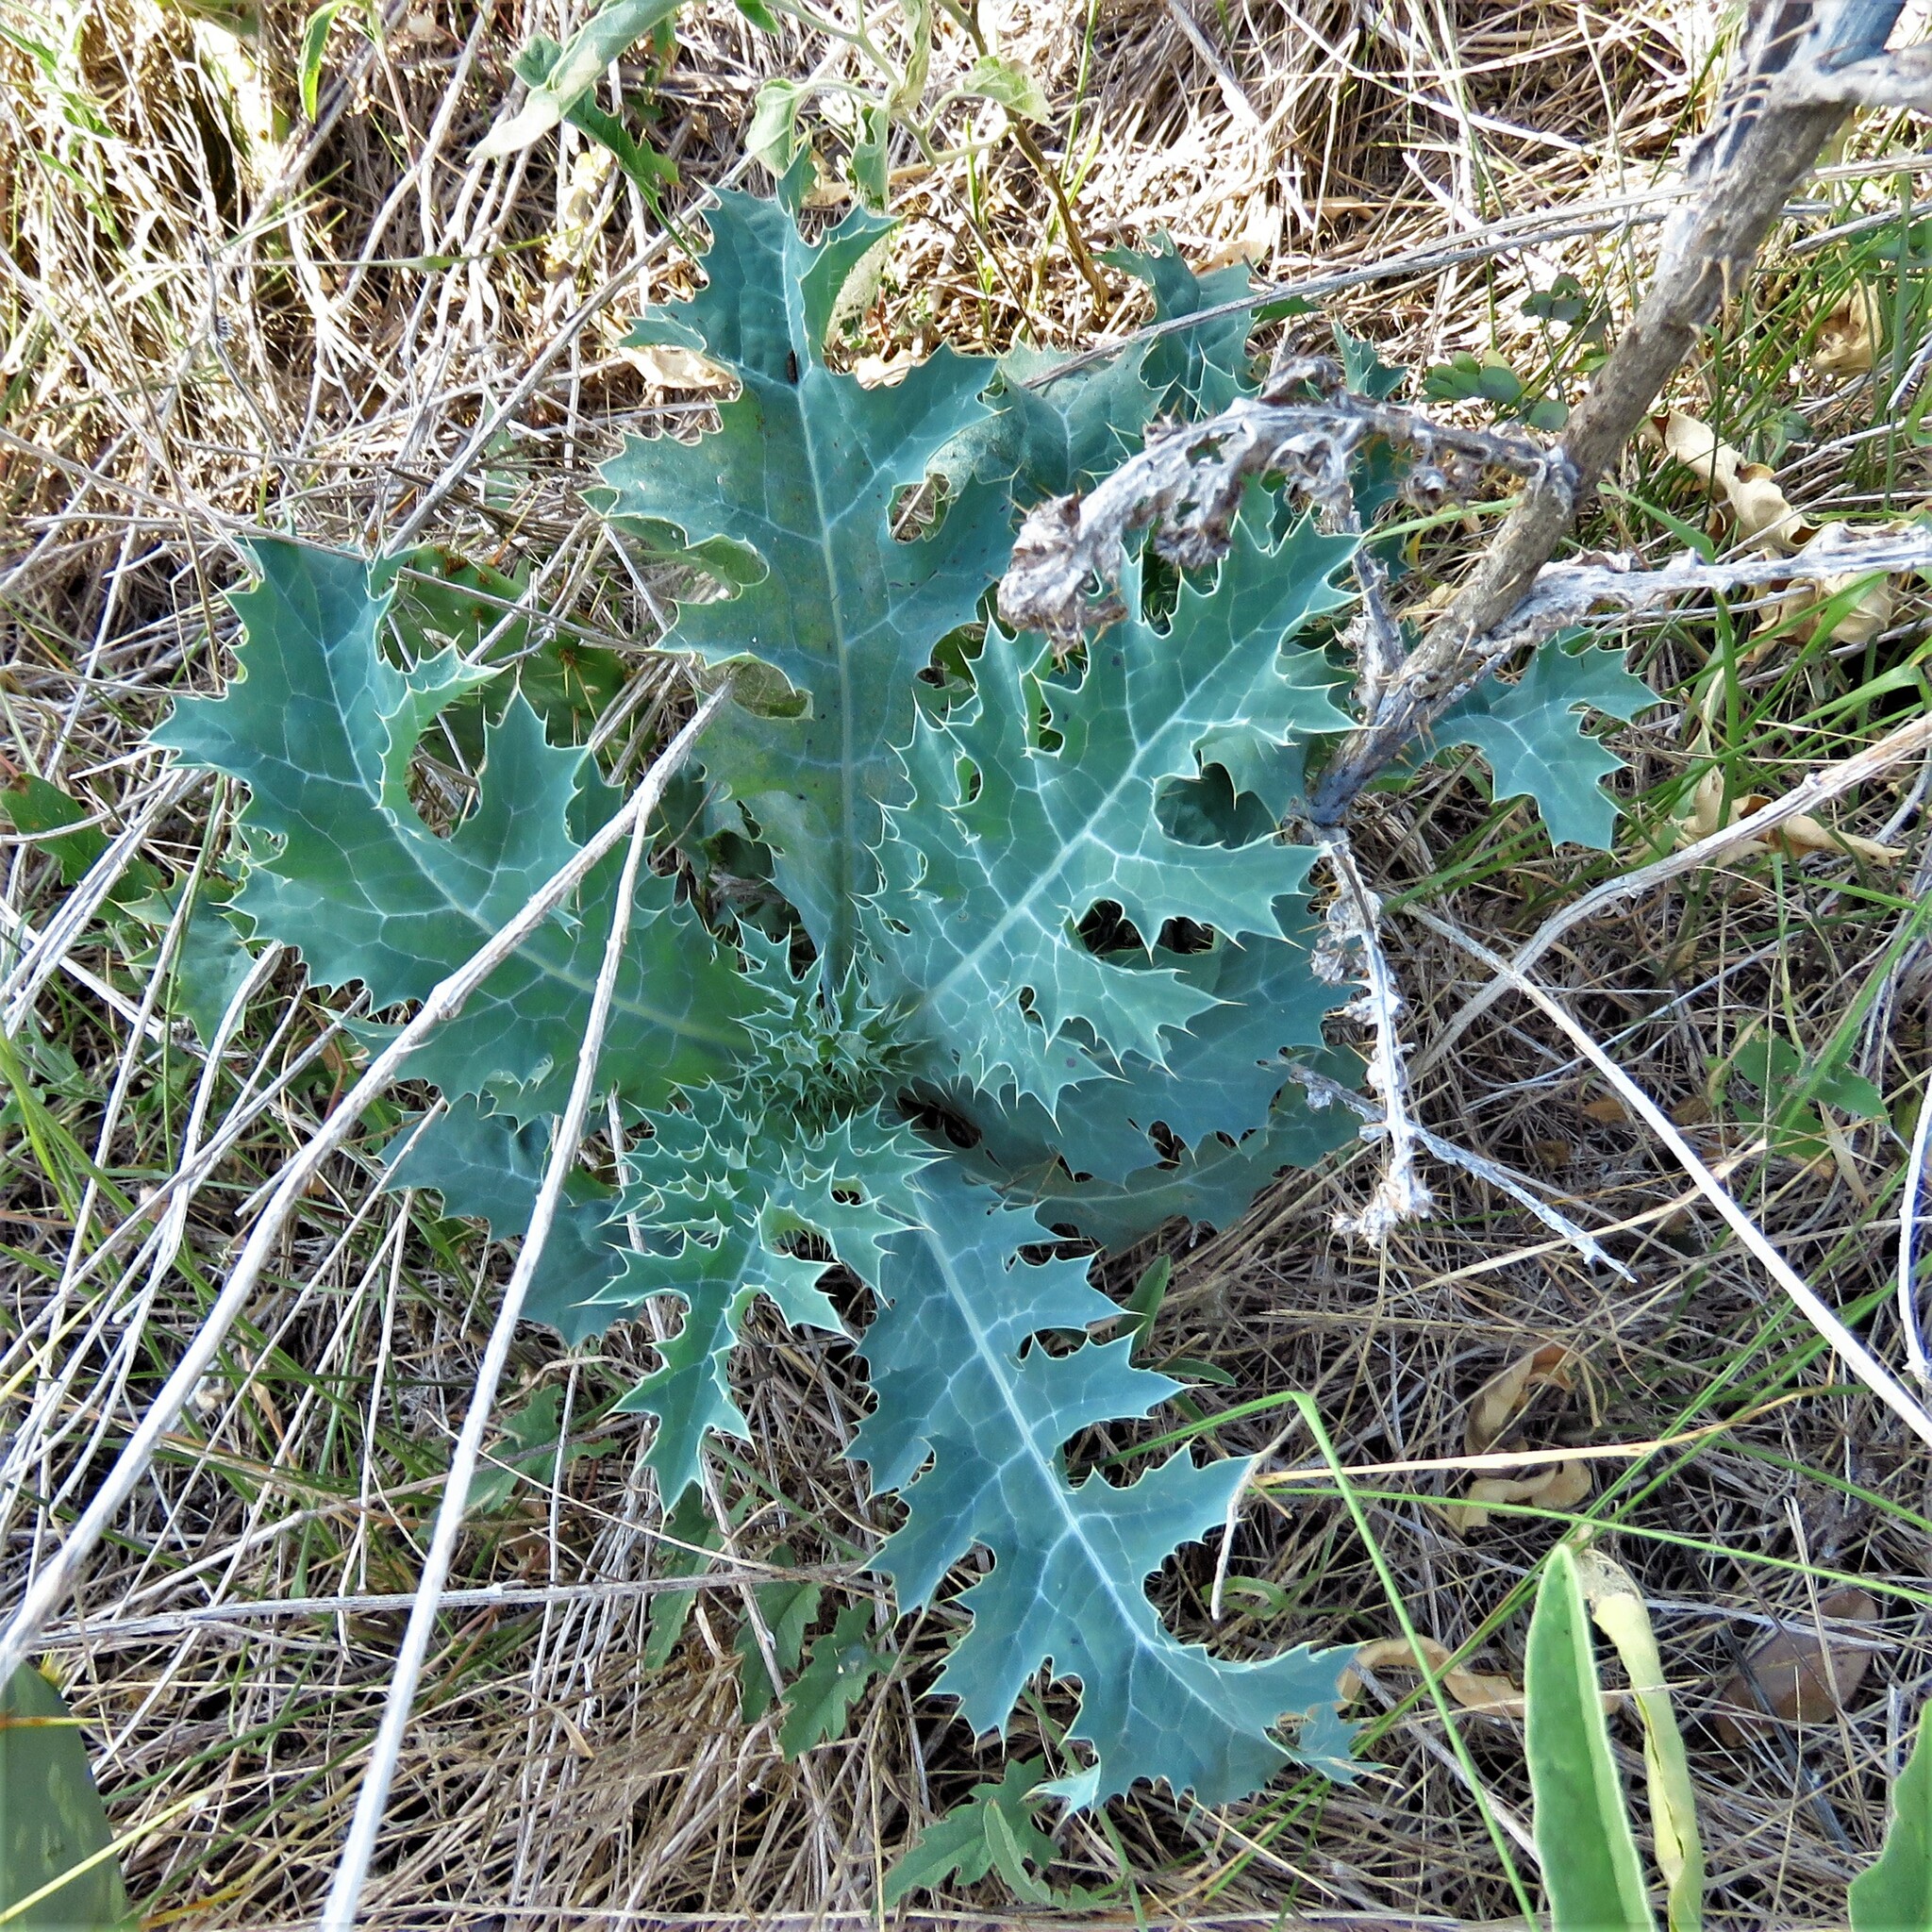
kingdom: Plantae
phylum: Tracheophyta
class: Magnoliopsida
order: Ranunculales
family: Papaveraceae
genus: Argemone
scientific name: Argemone albiflora
